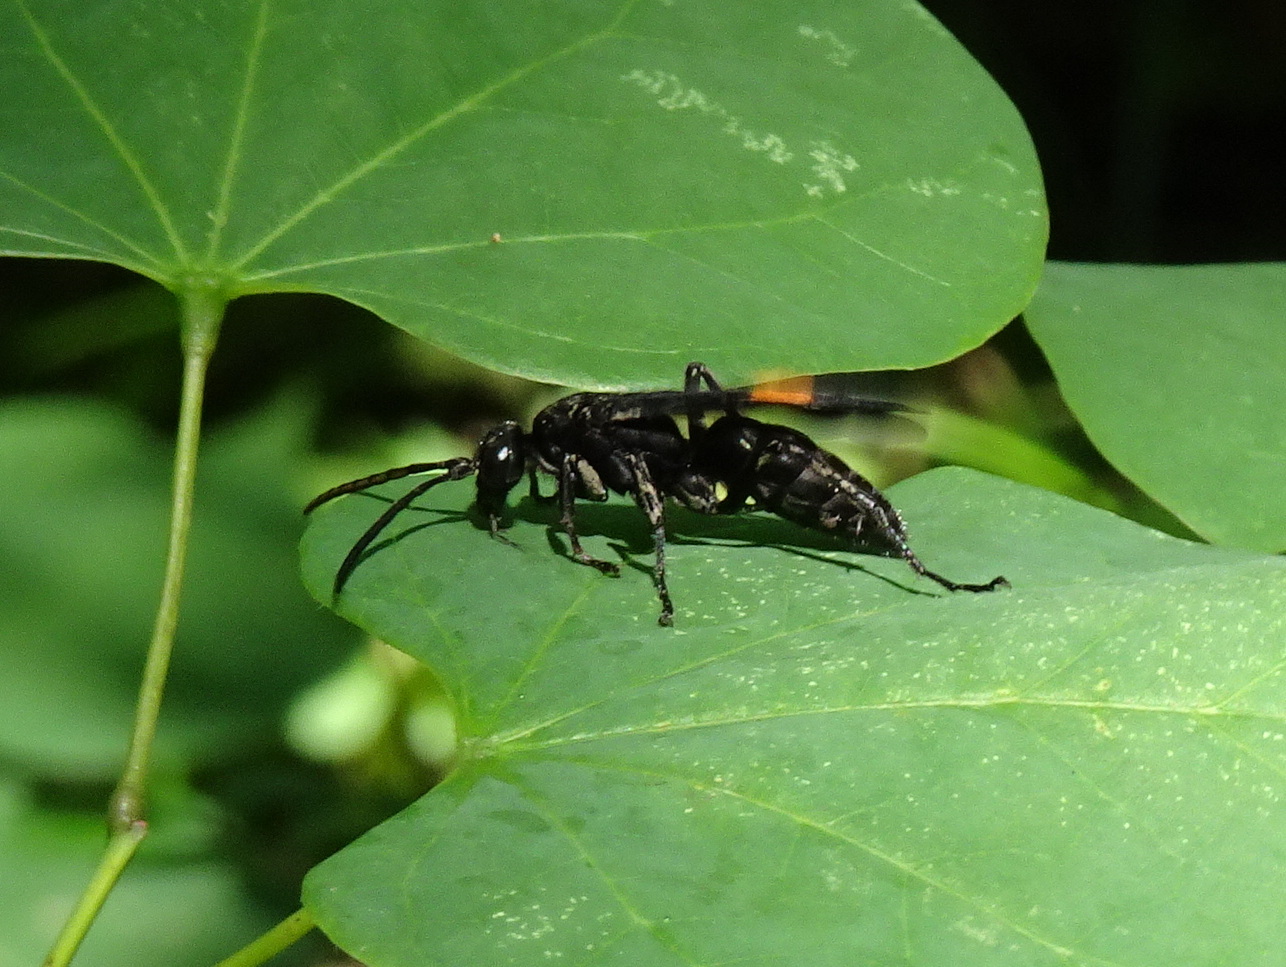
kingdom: Animalia
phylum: Arthropoda
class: Insecta
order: Hymenoptera
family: Pompilidae
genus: Chirodamus
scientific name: Chirodamus maculipennis
